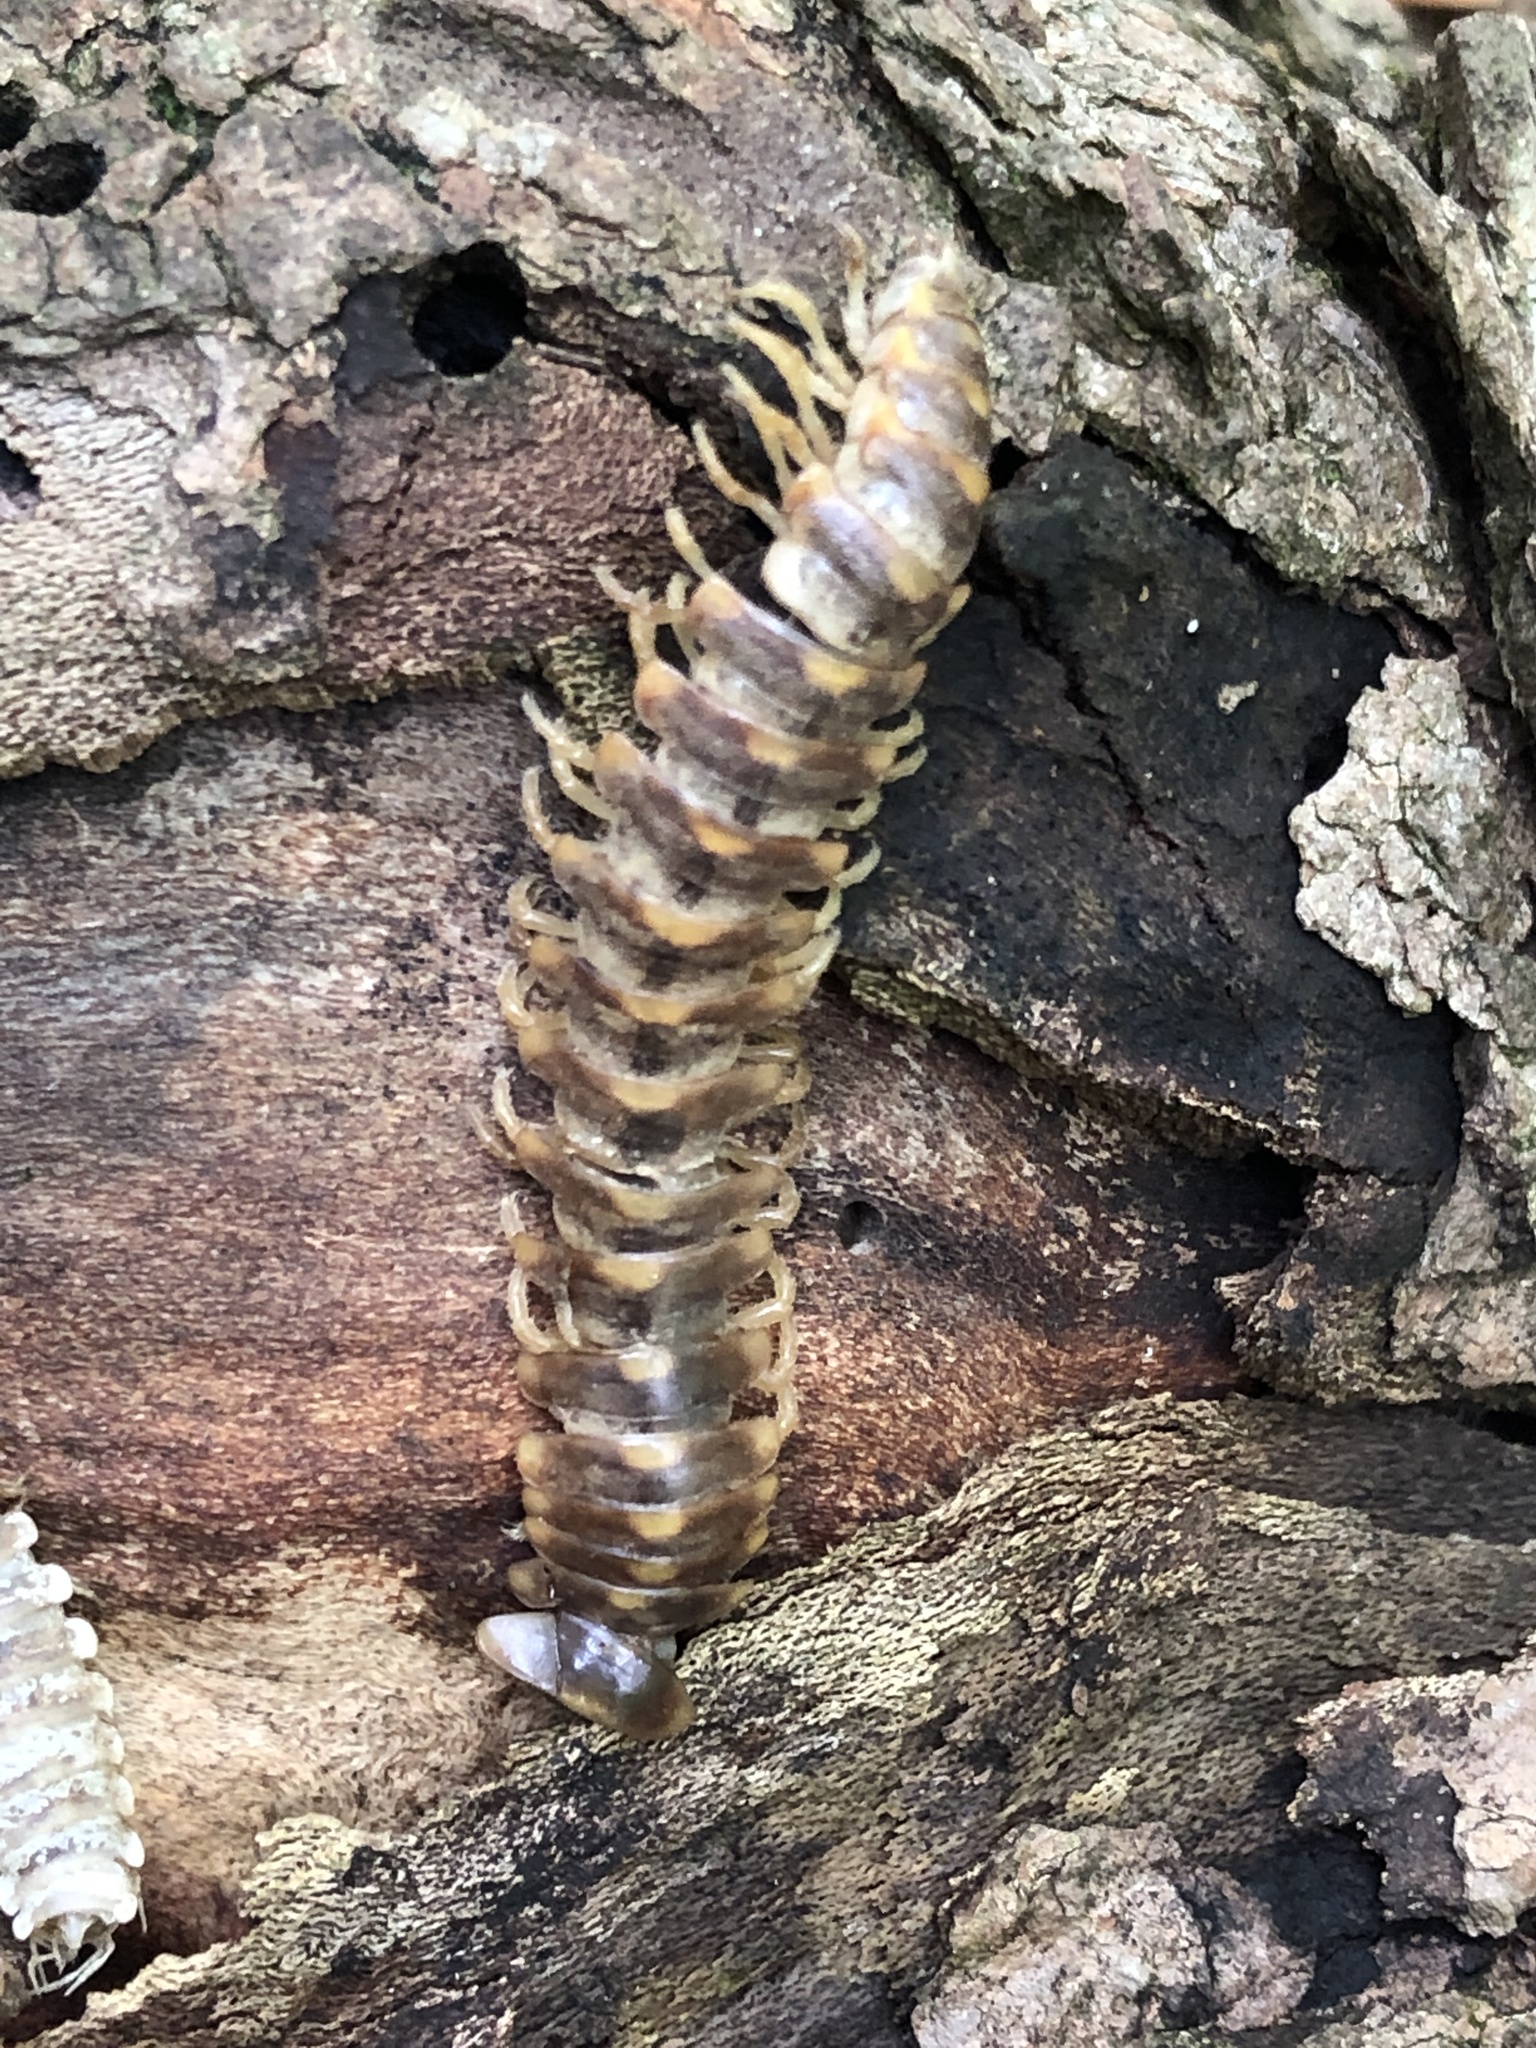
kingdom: Animalia
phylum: Arthropoda
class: Diplopoda
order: Polydesmida
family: Xystodesmidae
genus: Rudiloria
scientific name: Rudiloria trimaculata
